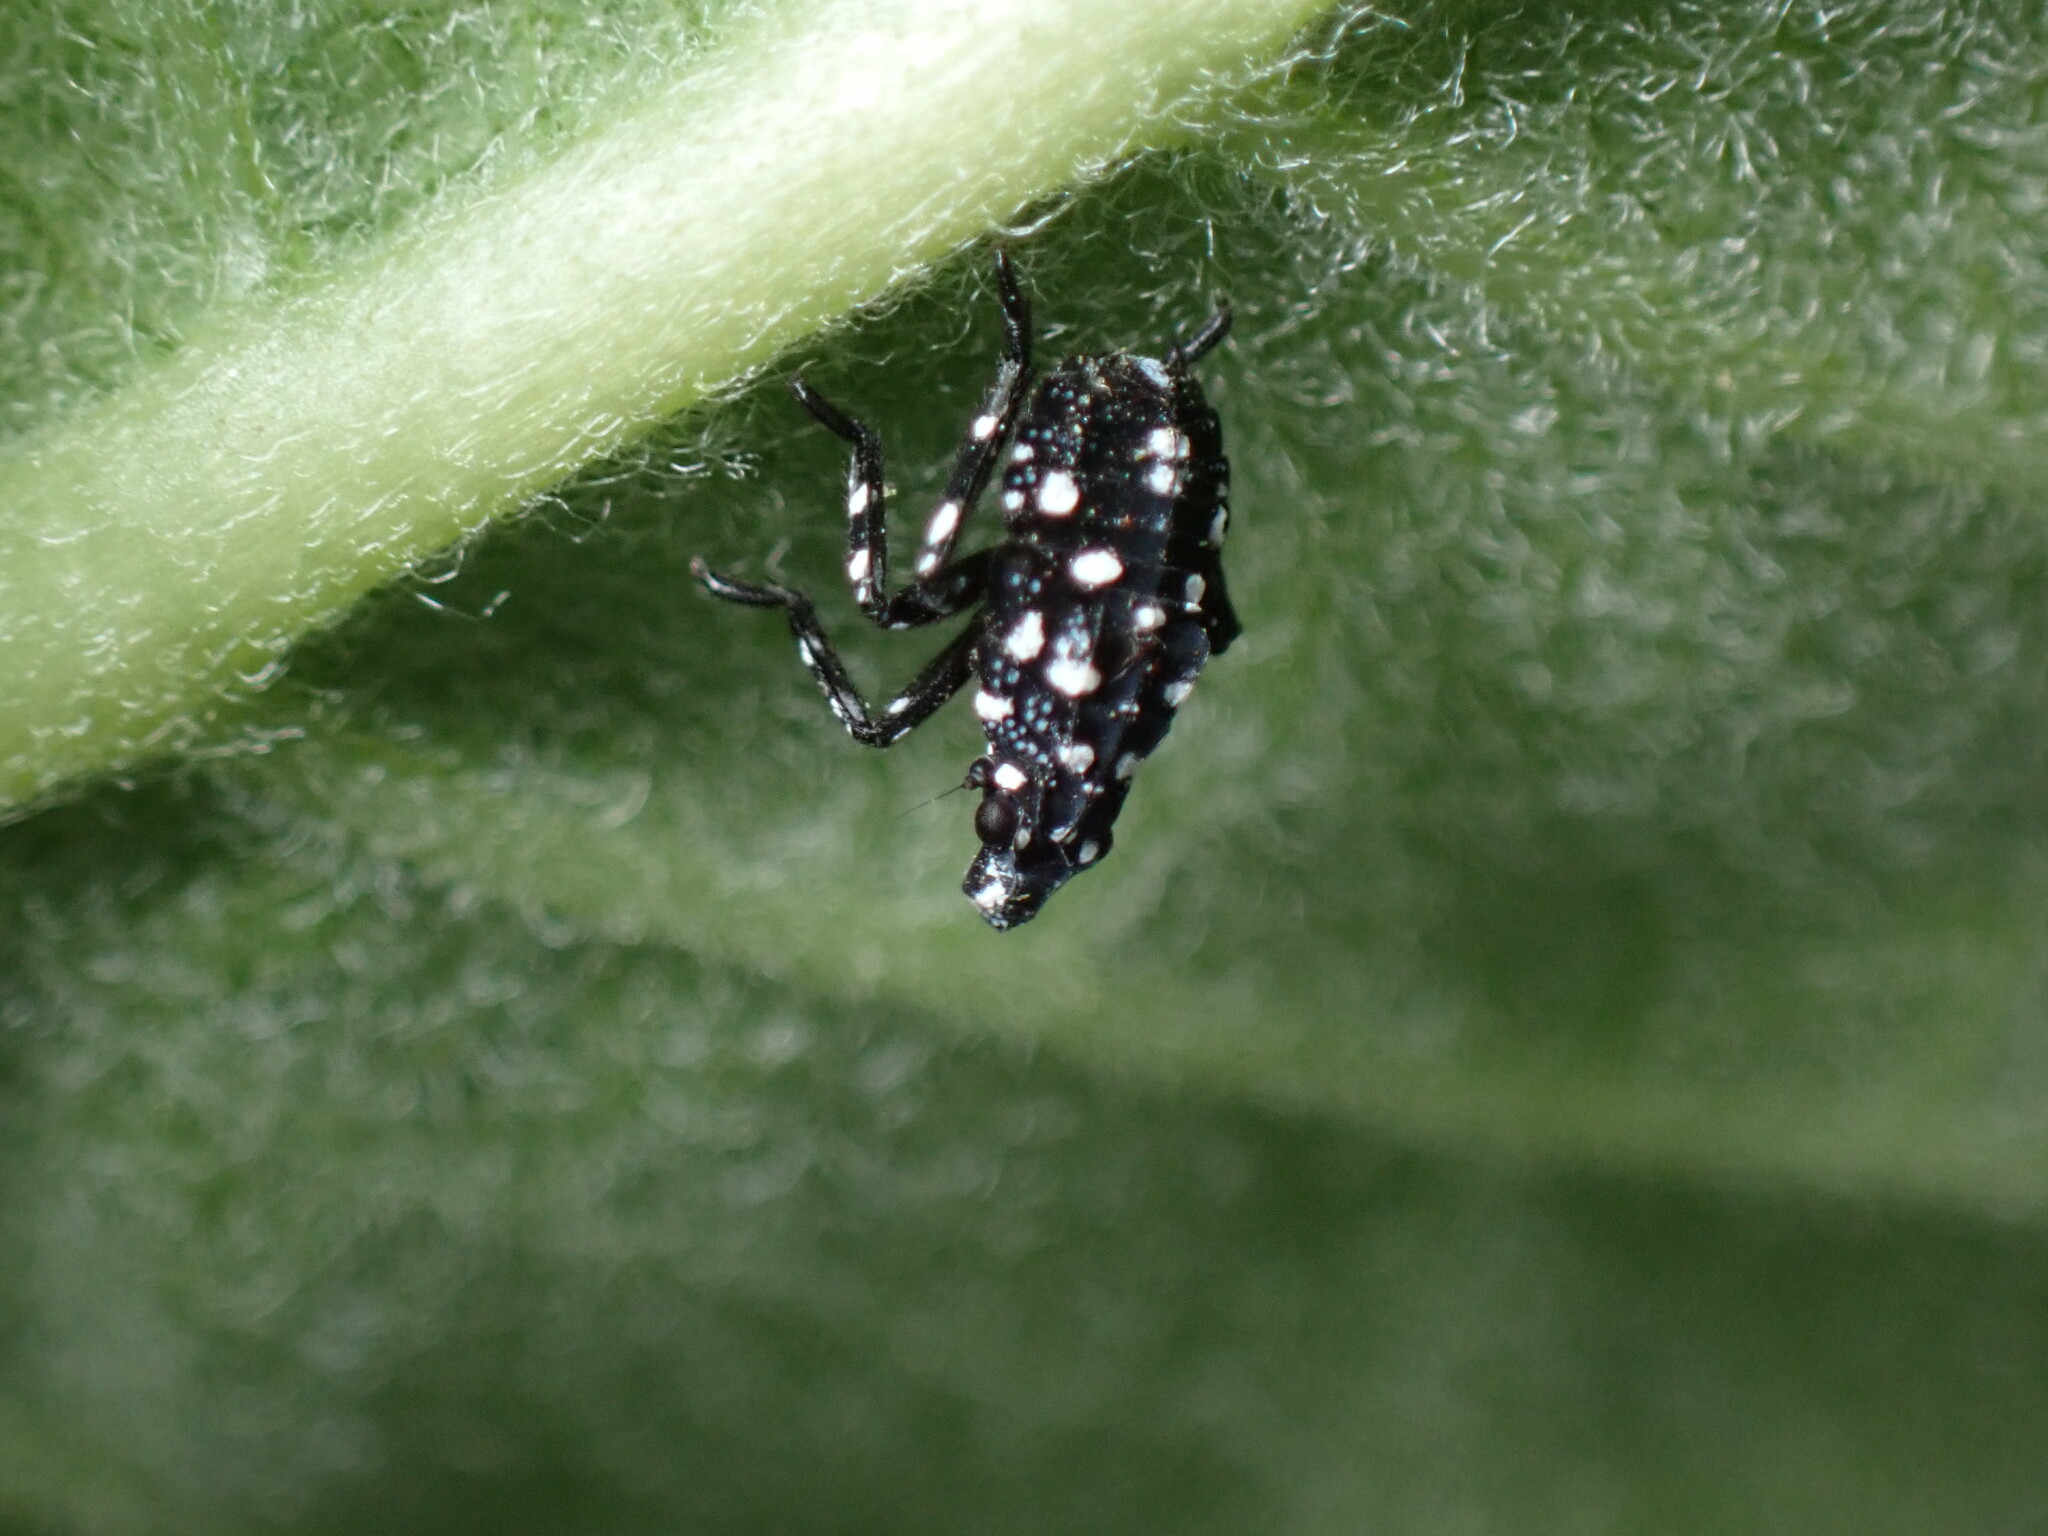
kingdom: Animalia
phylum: Arthropoda
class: Insecta
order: Hemiptera
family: Fulgoridae
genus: Lycorma
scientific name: Lycorma delicatula
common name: Spotted lanternfly
